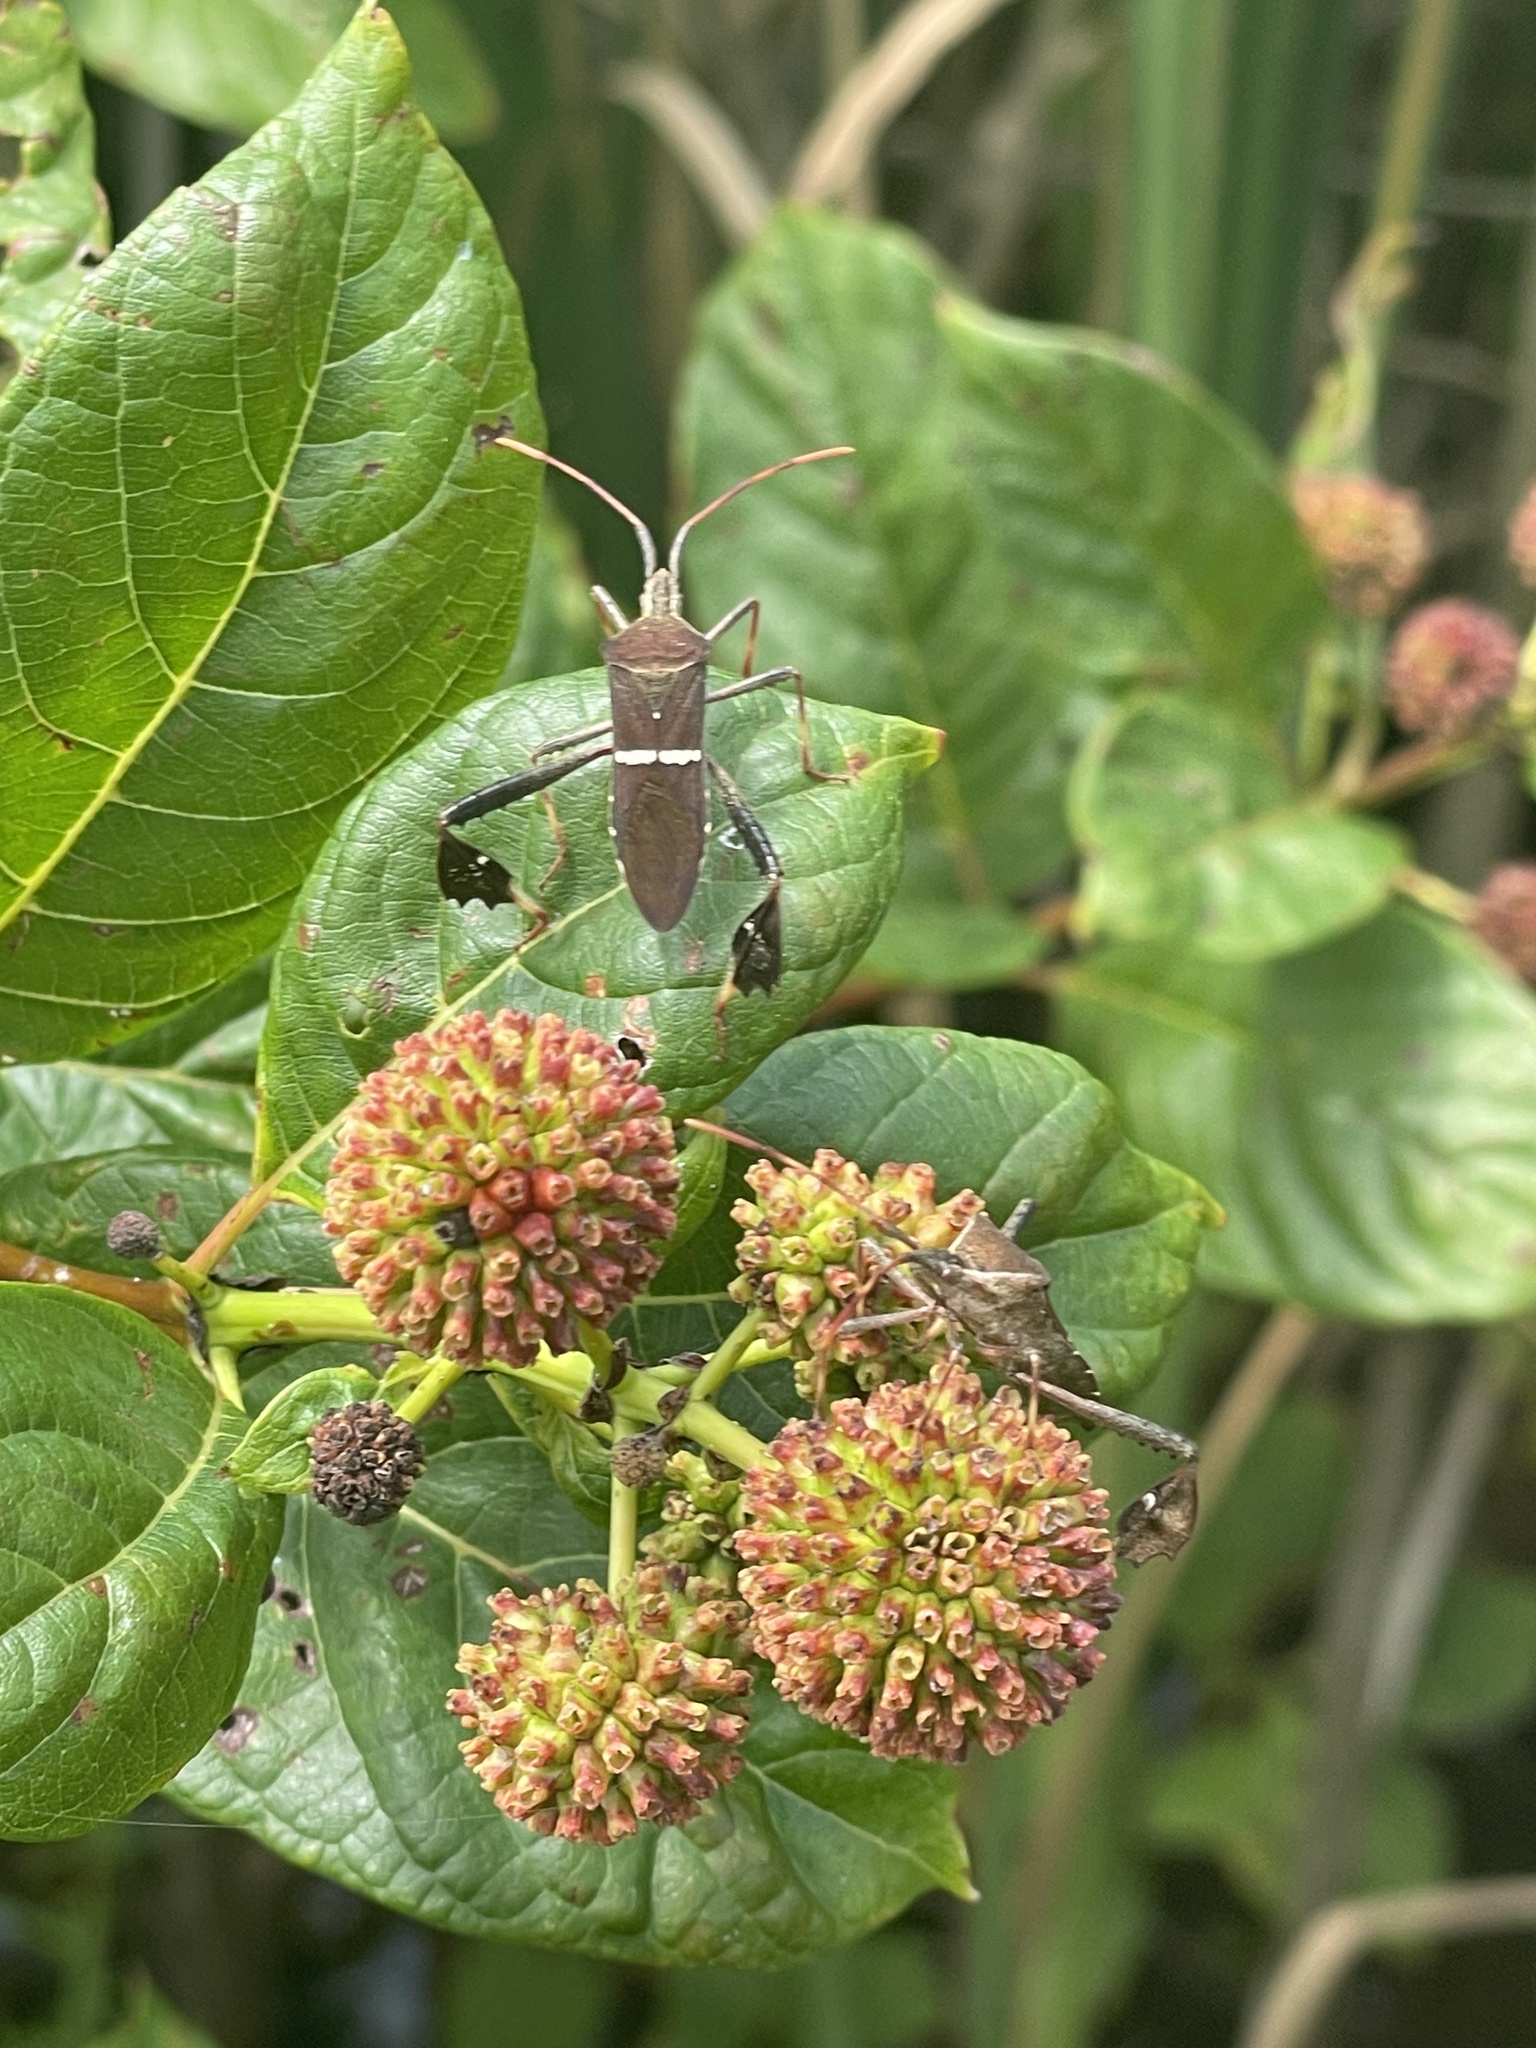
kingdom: Animalia
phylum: Arthropoda
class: Insecta
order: Hemiptera
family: Coreidae
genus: Leptoglossus
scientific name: Leptoglossus phyllopus
